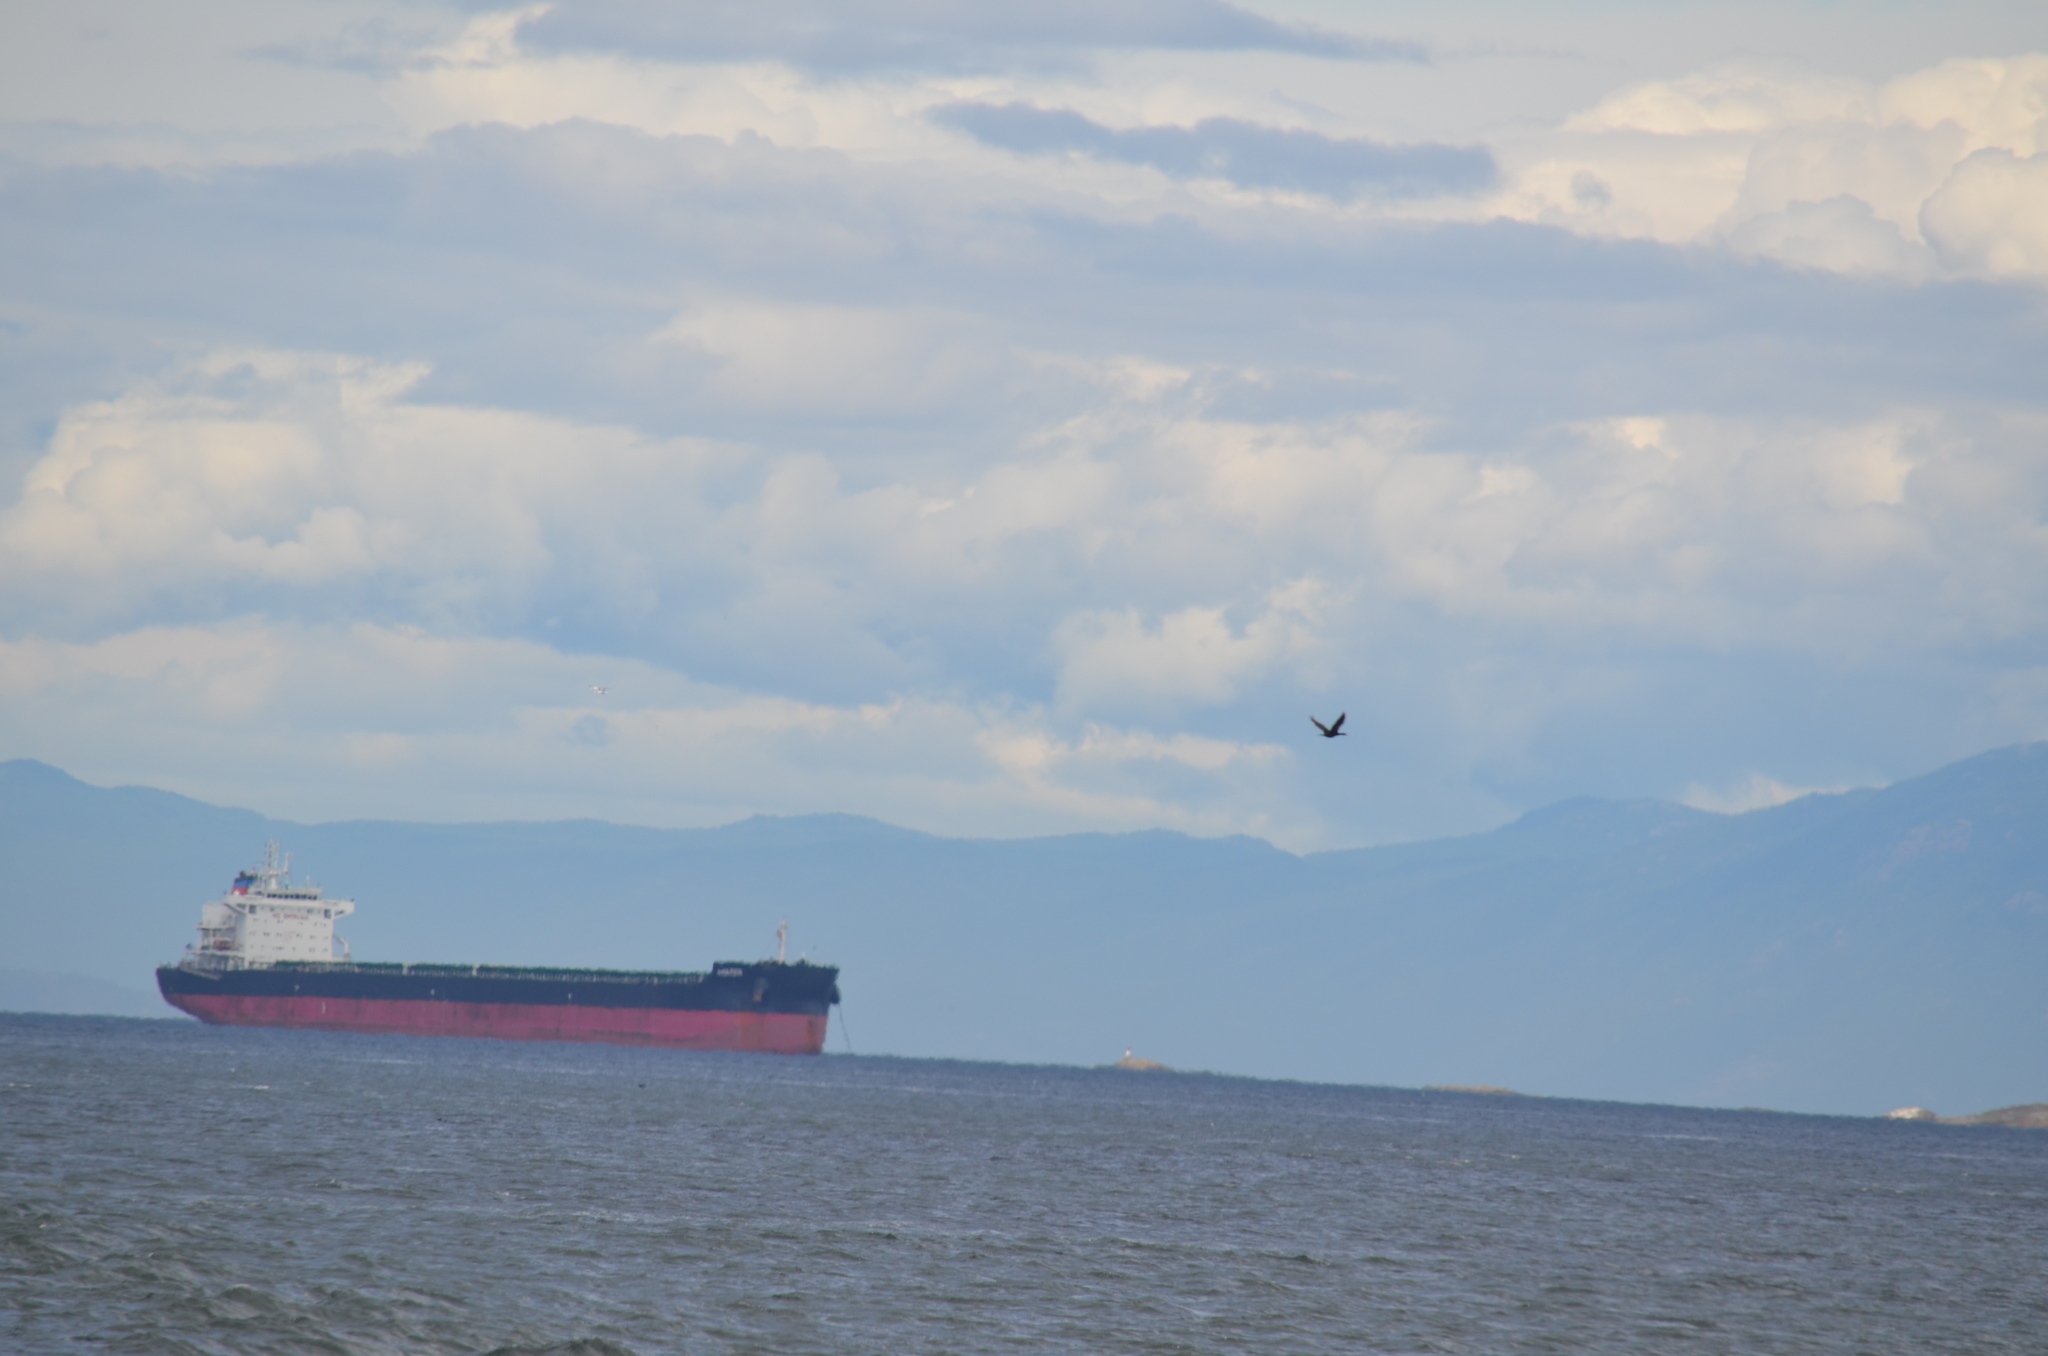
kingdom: Animalia
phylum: Chordata
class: Aves
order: Suliformes
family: Phalacrocoracidae
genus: Phalacrocorax
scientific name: Phalacrocorax auritus
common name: Double-crested cormorant
